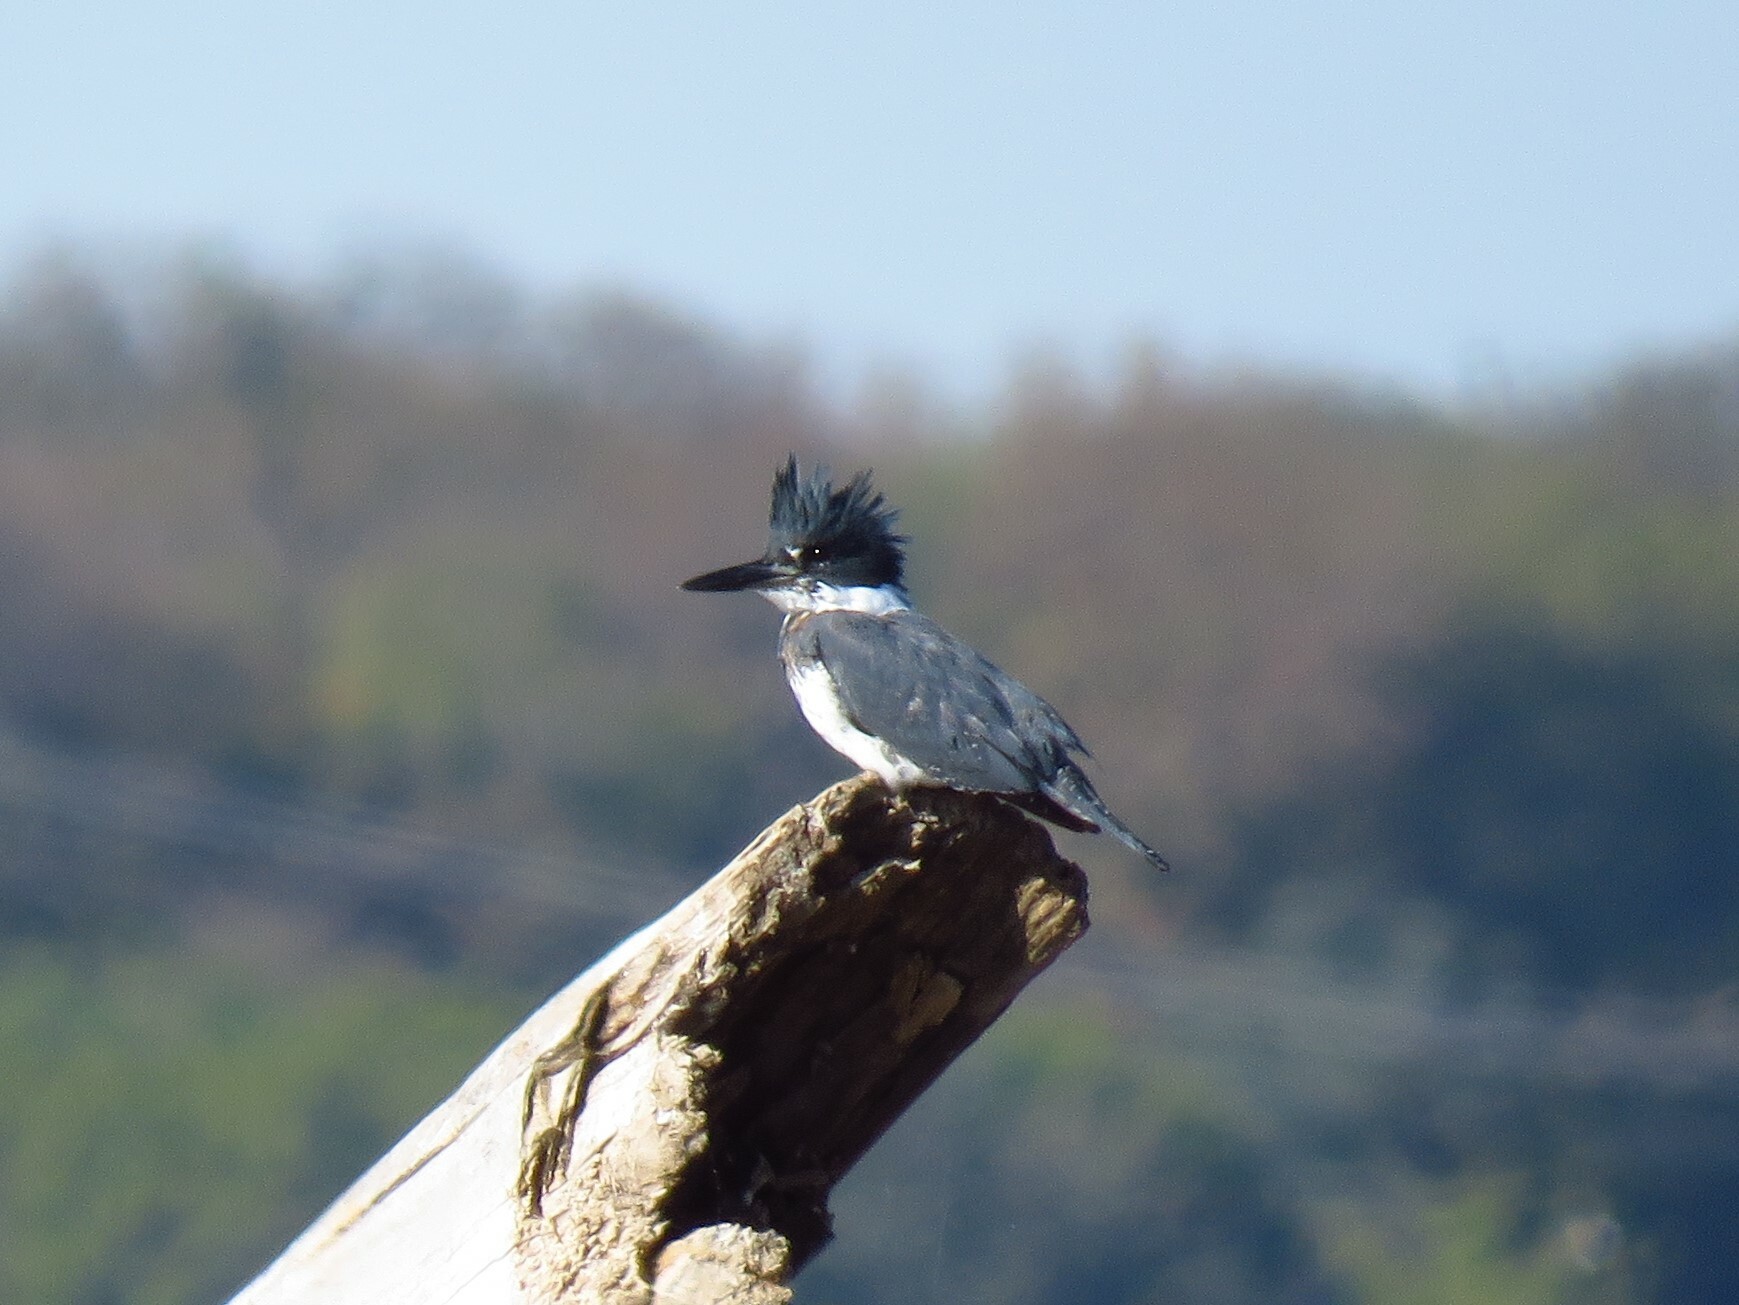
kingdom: Animalia
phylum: Chordata
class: Aves
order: Coraciiformes
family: Alcedinidae
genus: Megaceryle
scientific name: Megaceryle alcyon
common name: Belted kingfisher
